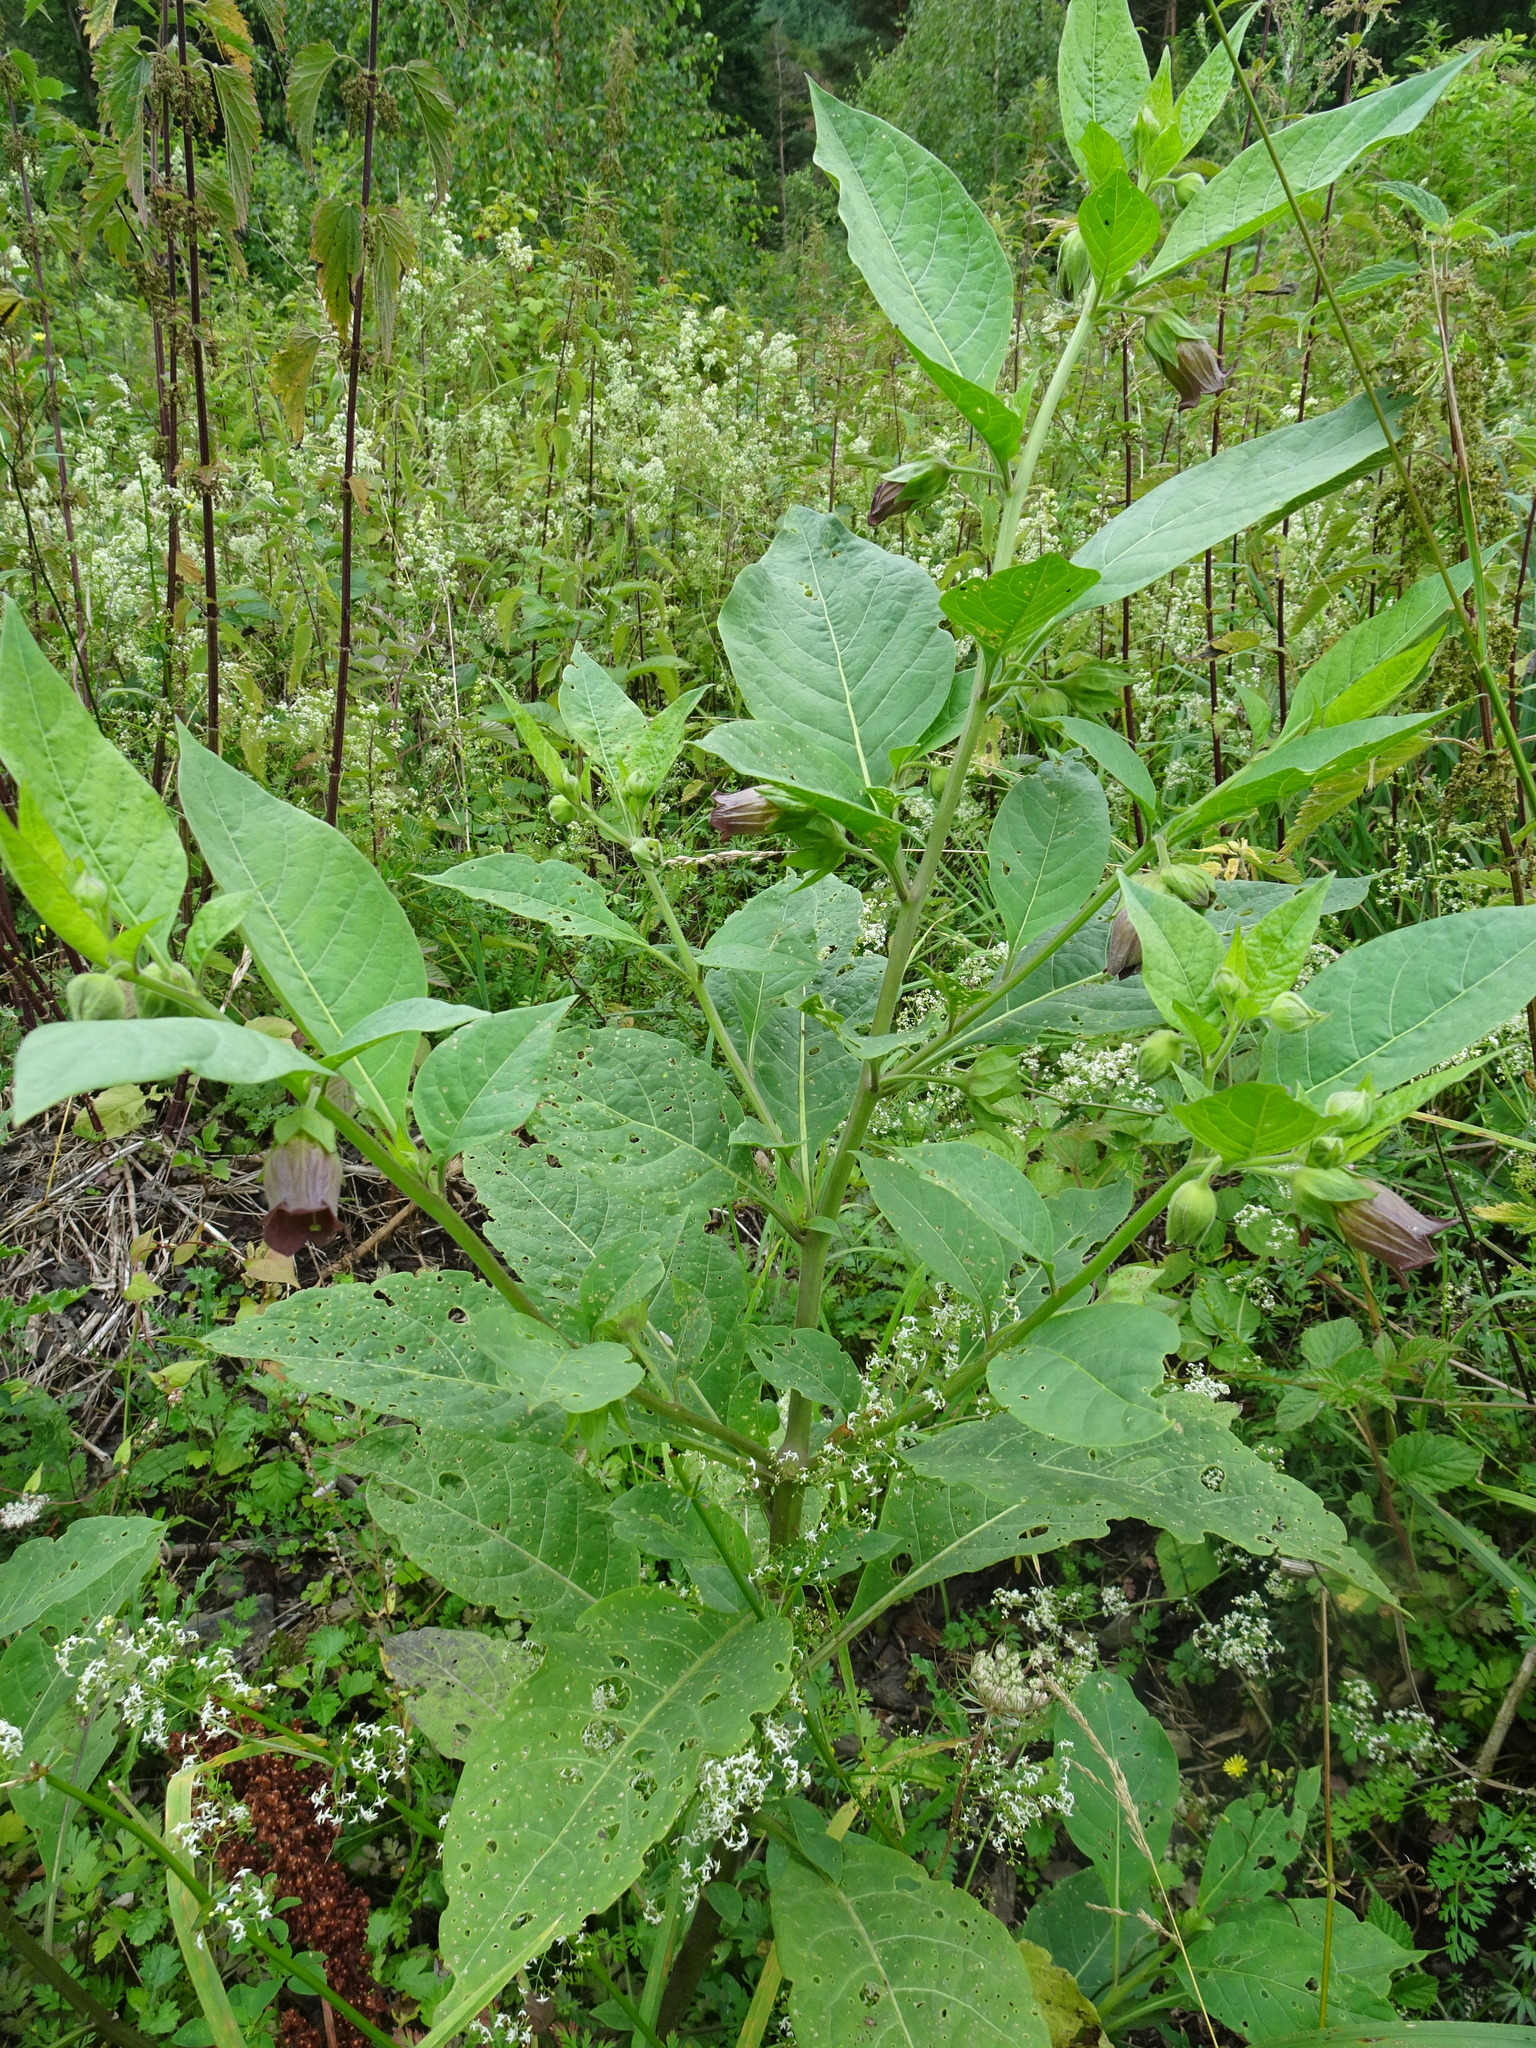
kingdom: Plantae
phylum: Tracheophyta
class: Magnoliopsida
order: Solanales
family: Solanaceae
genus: Atropa
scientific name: Atropa belladonna
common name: Deadly nightshade
